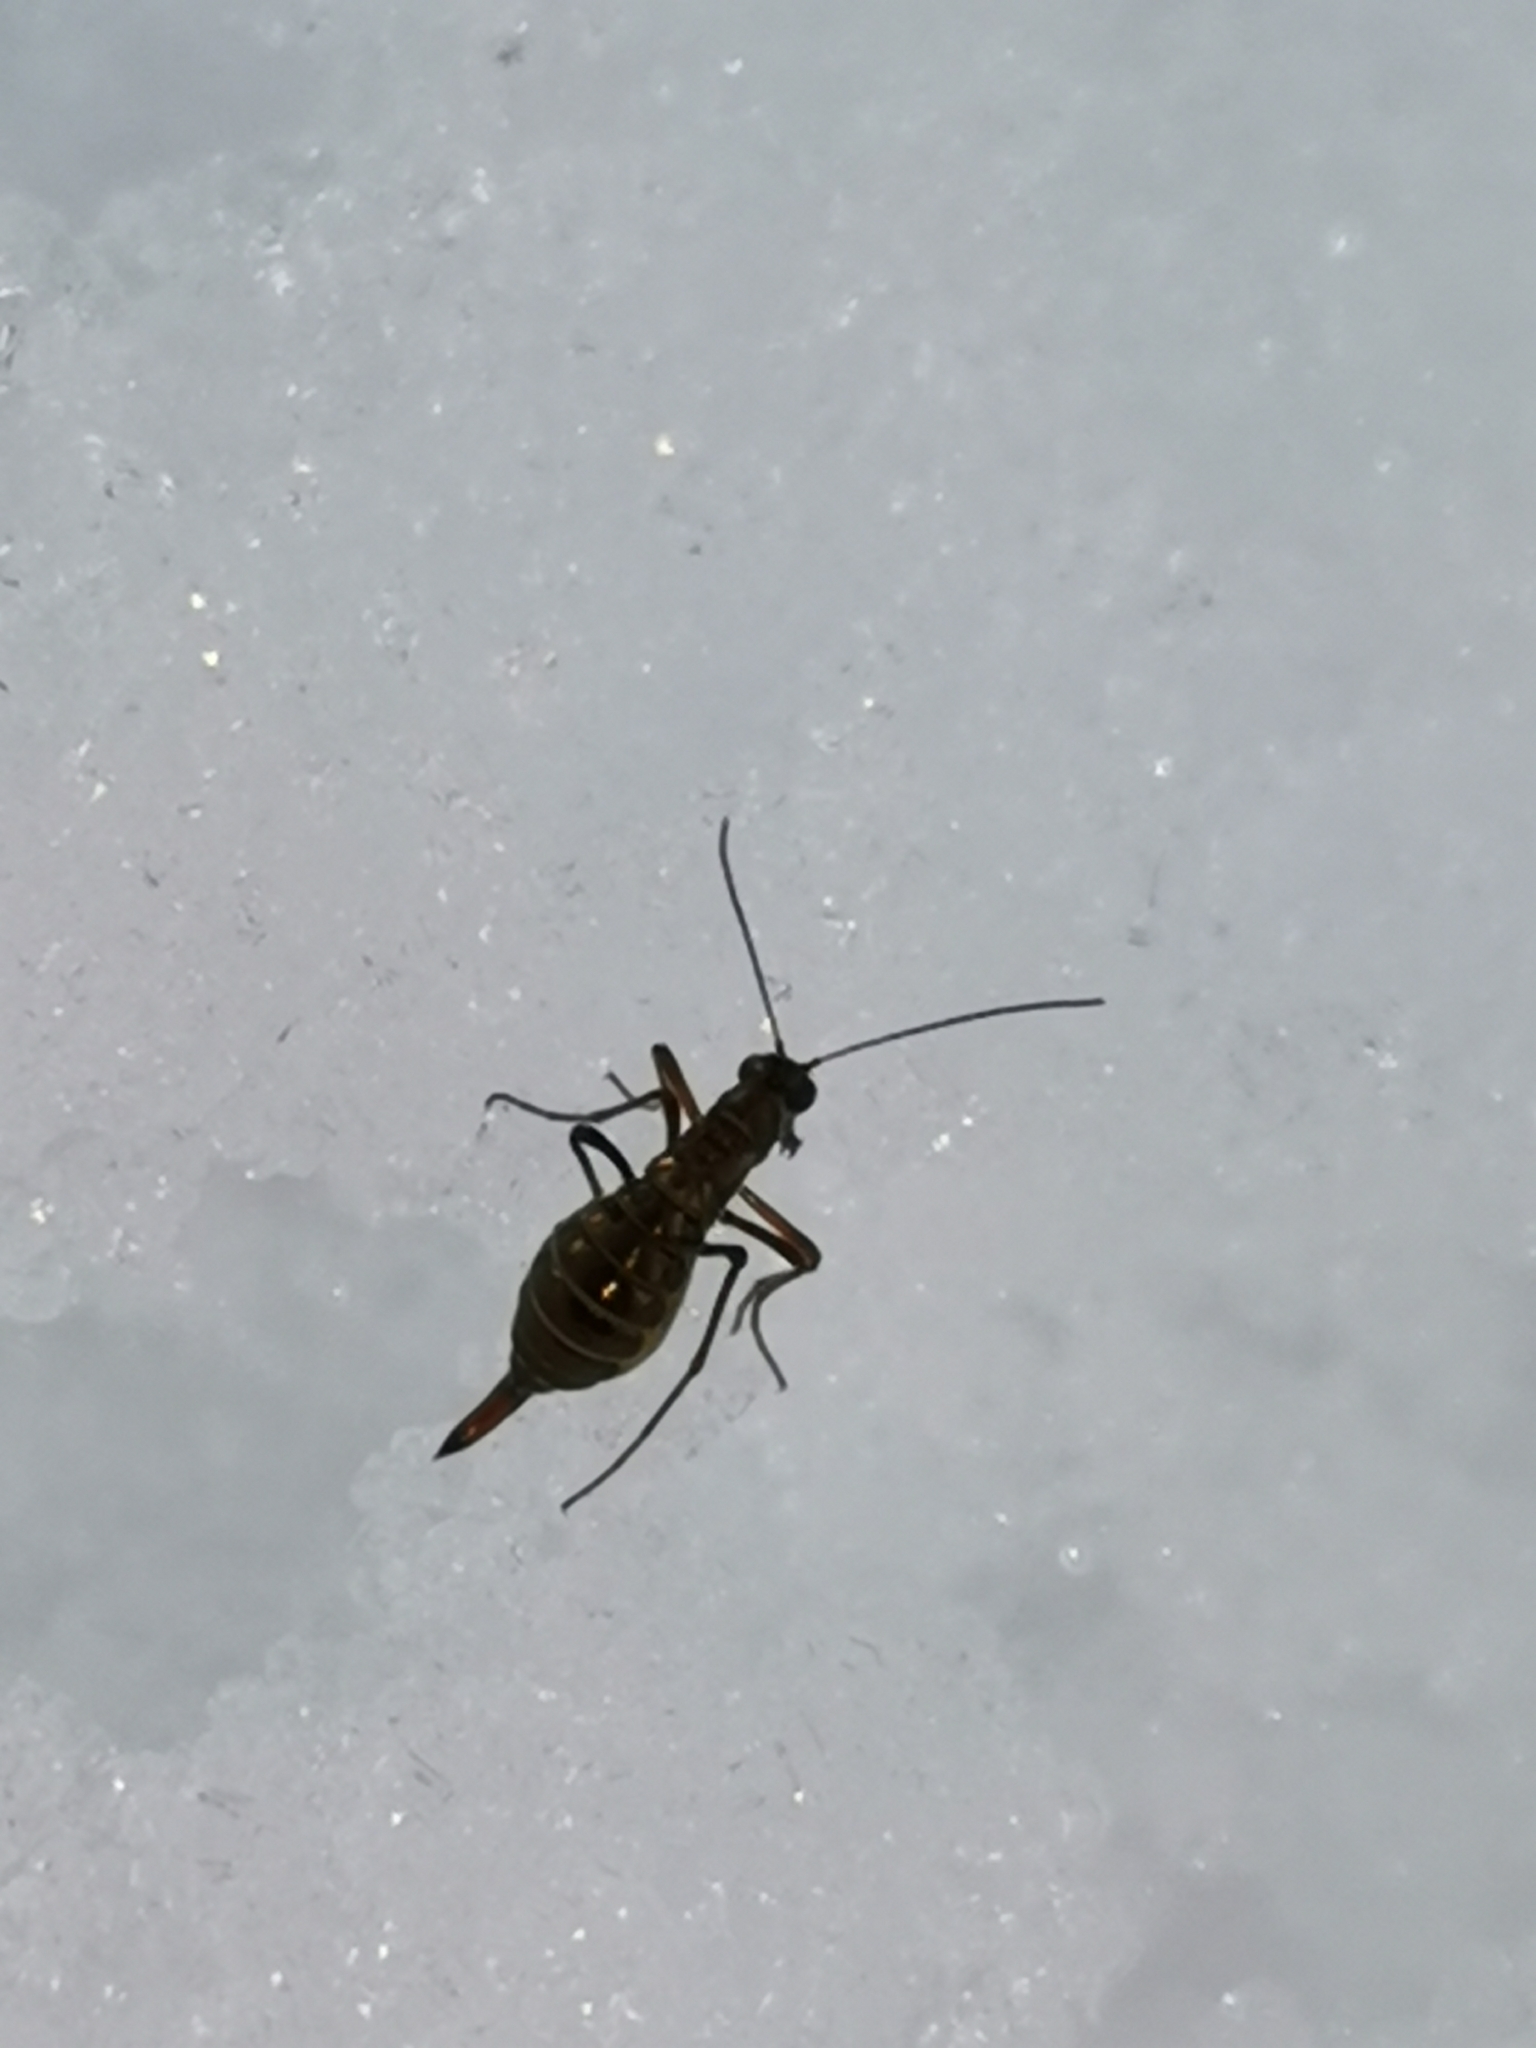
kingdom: Animalia
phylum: Arthropoda
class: Insecta
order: Mecoptera
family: Boreidae
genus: Boreus
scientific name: Boreus westwoodi
